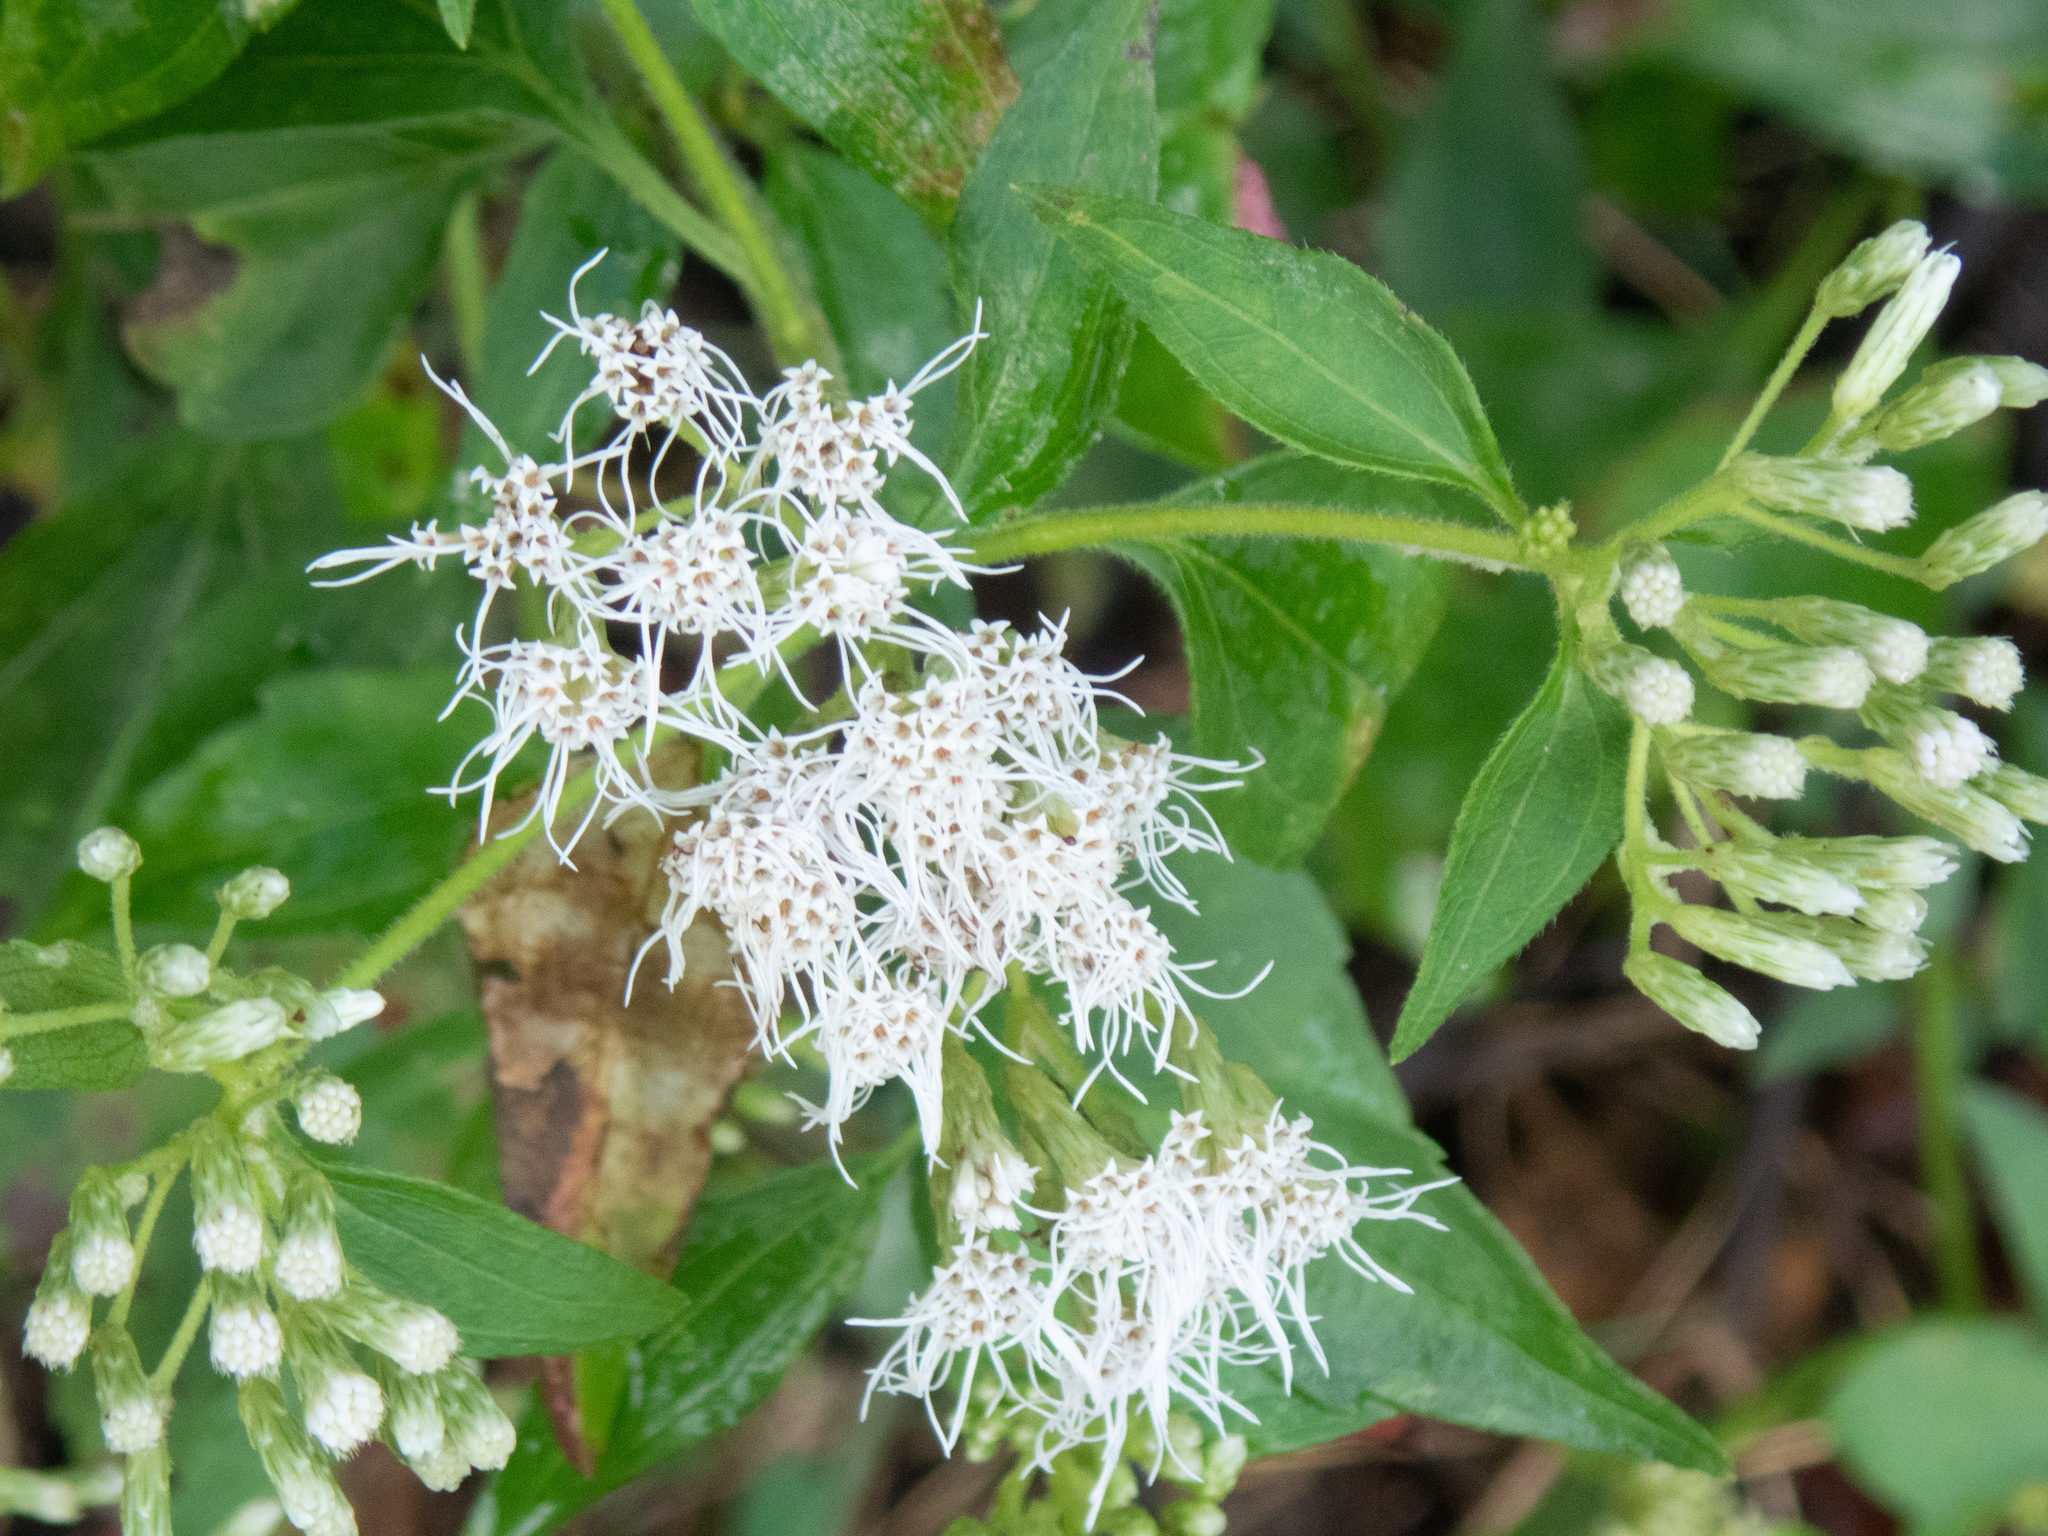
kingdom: Plantae
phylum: Tracheophyta
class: Magnoliopsida
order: Asterales
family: Asteraceae
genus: Chromolaena
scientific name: Chromolaena odorata
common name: Siamweed
